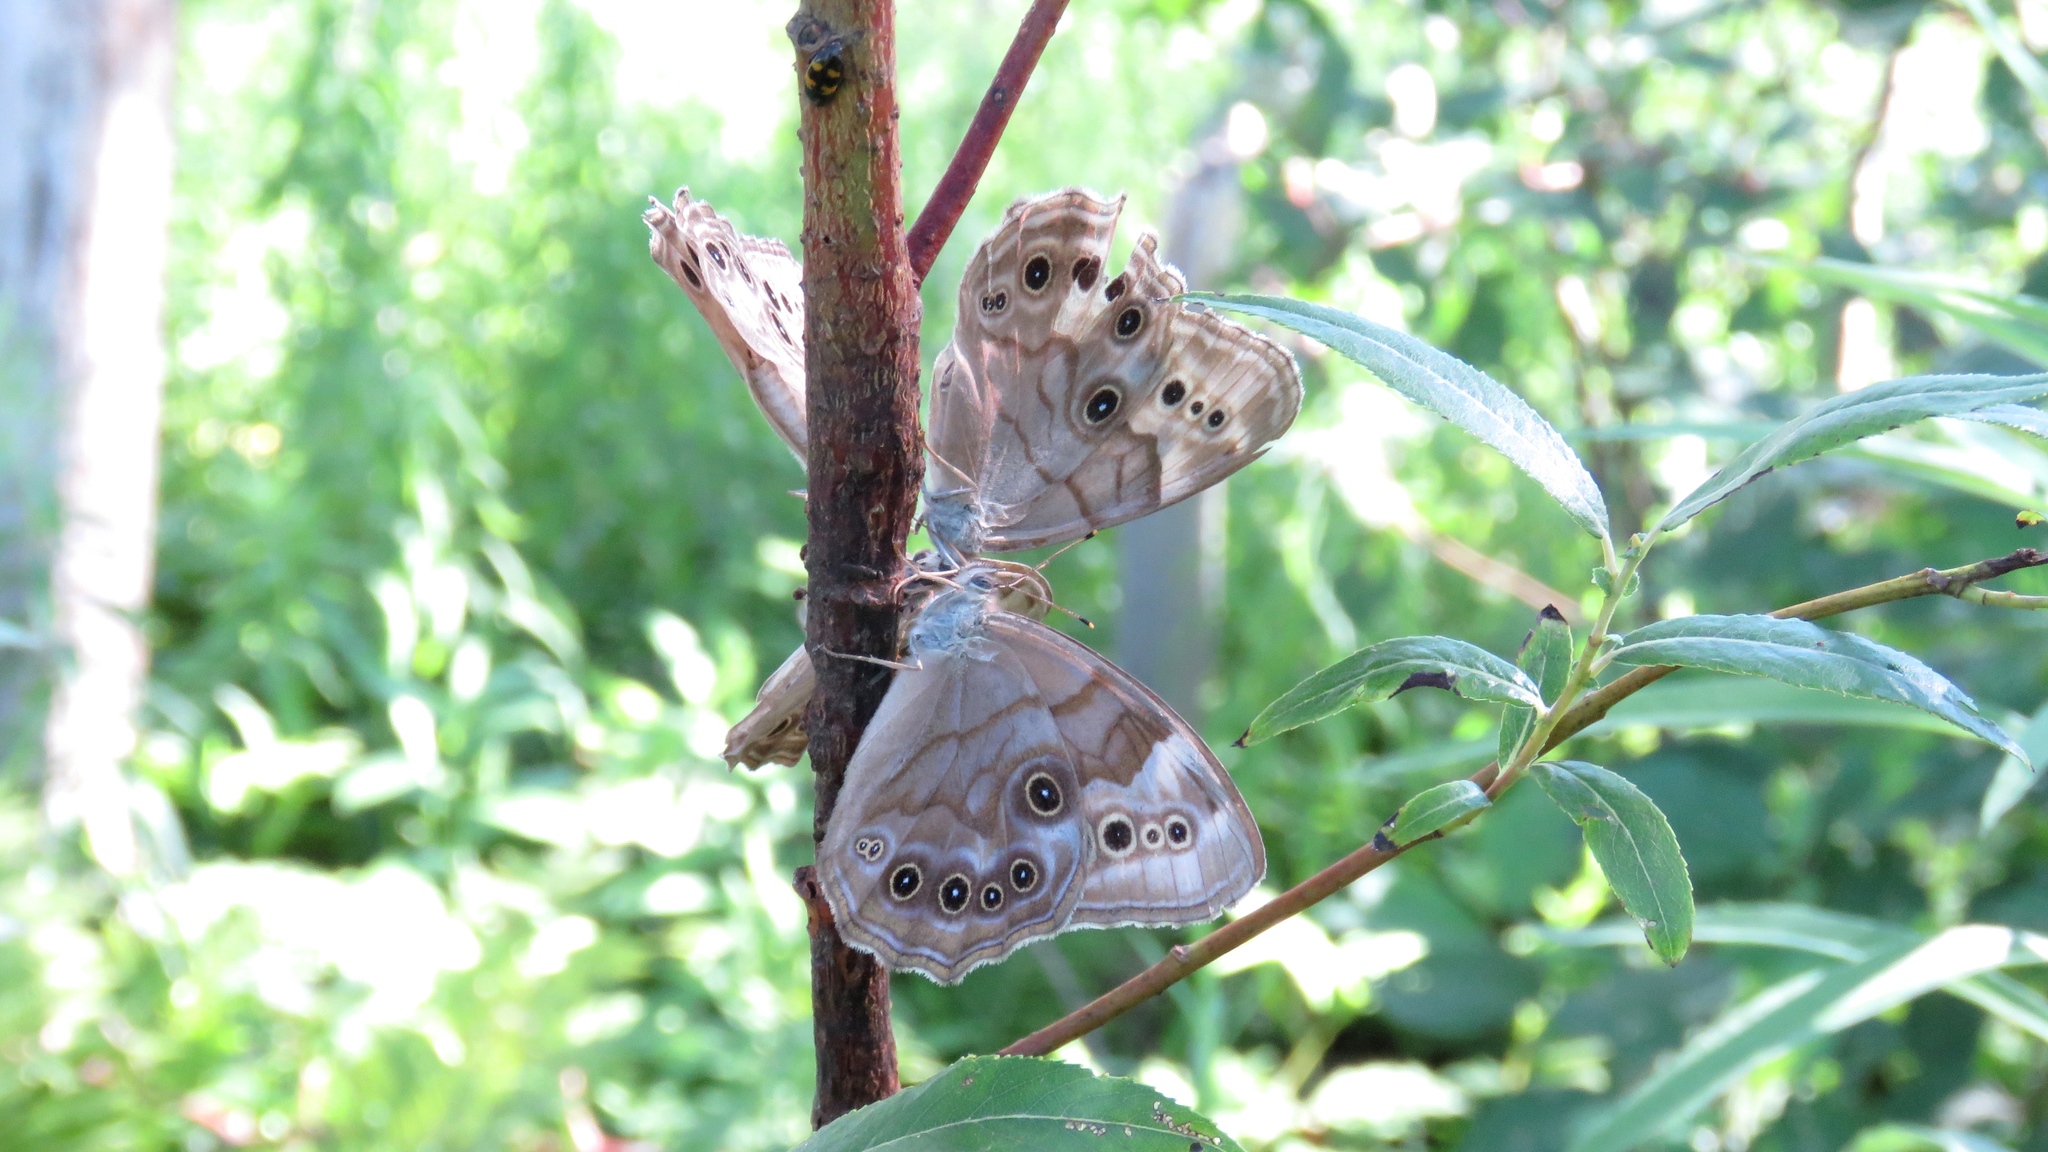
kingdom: Animalia
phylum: Arthropoda
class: Insecta
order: Lepidoptera
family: Nymphalidae
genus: Lethe
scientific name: Lethe anthedon
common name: Northern pearly-eye
